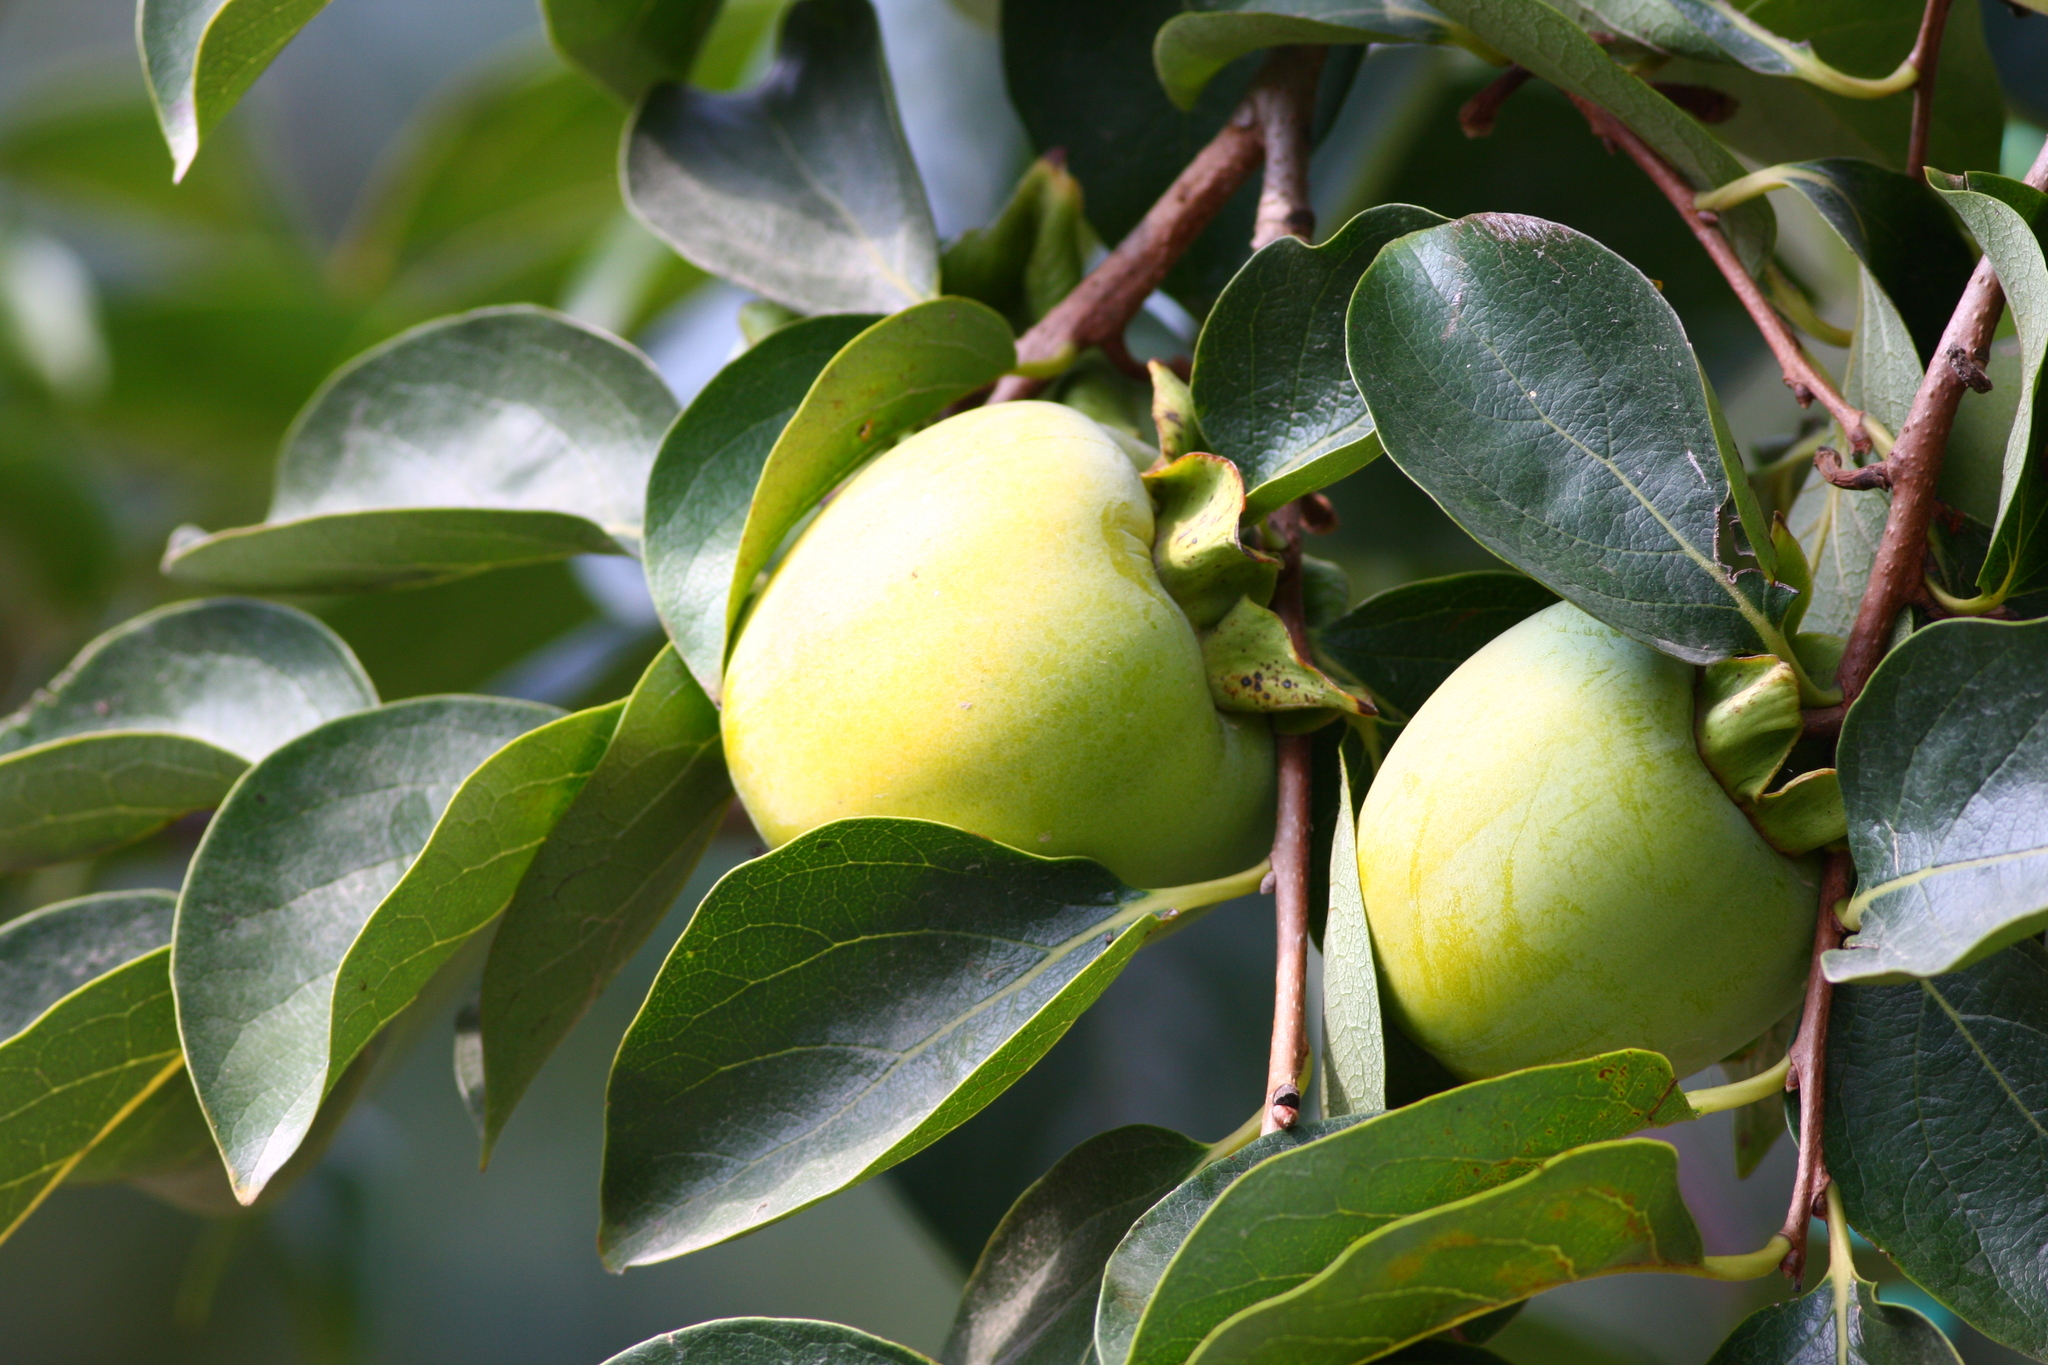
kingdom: Plantae
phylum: Tracheophyta
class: Magnoliopsida
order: Ericales
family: Ebenaceae
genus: Diospyros
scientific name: Diospyros kaki
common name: Persimmon
